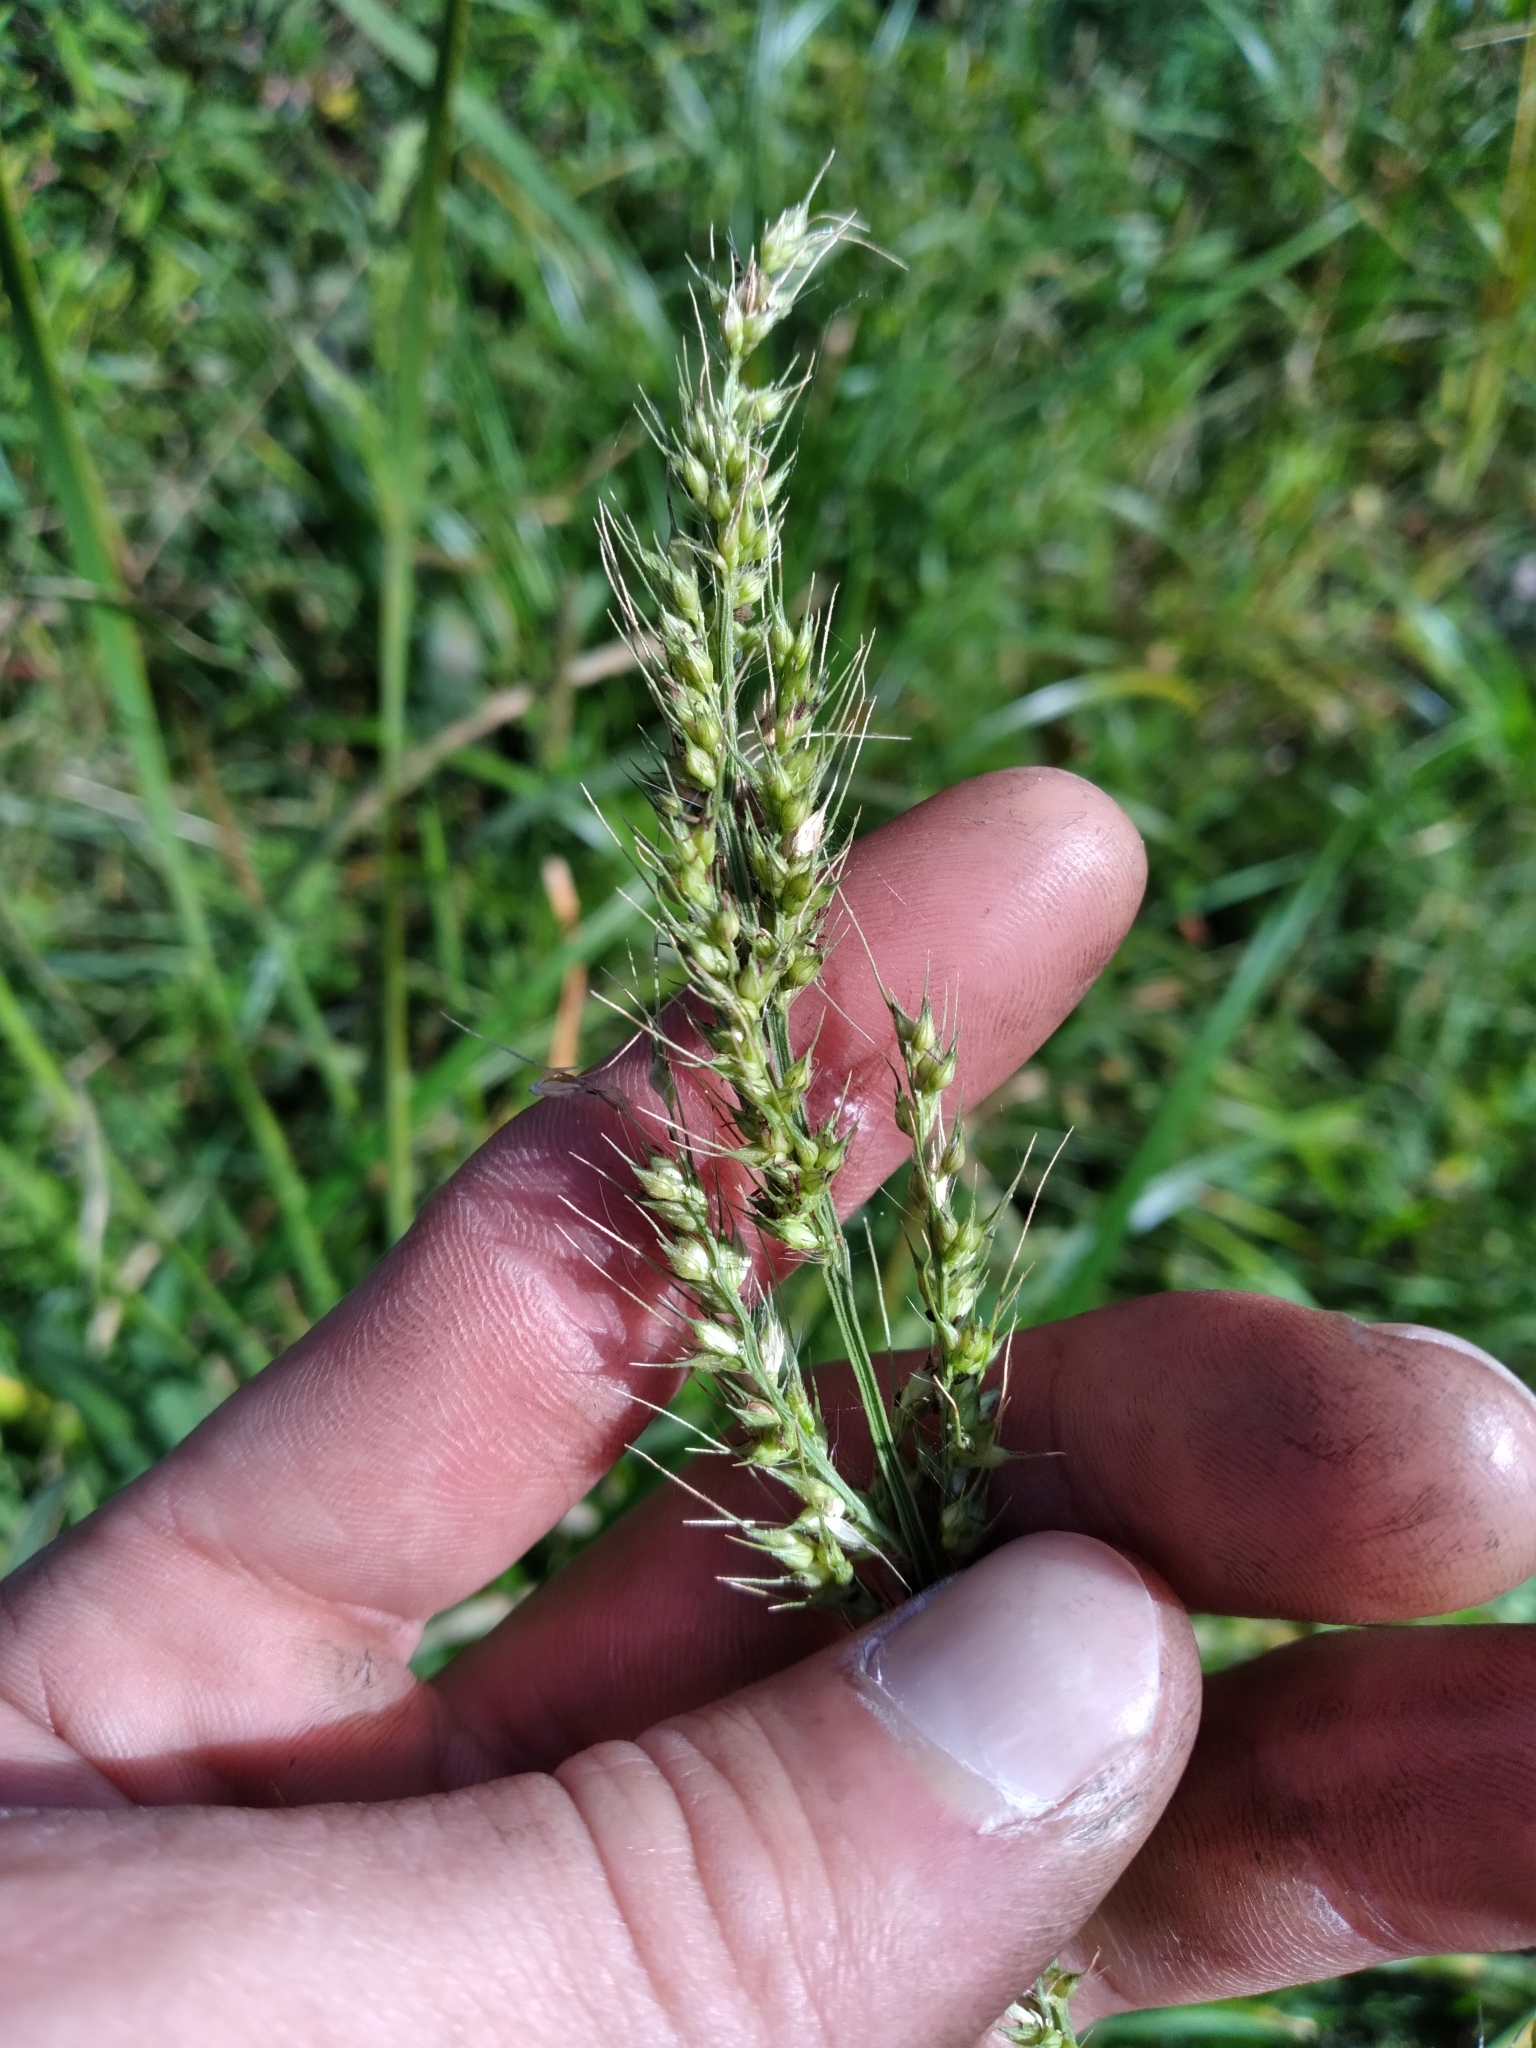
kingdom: Plantae
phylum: Tracheophyta
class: Liliopsida
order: Poales
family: Poaceae
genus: Echinochloa
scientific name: Echinochloa crus-galli
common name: Cockspur
